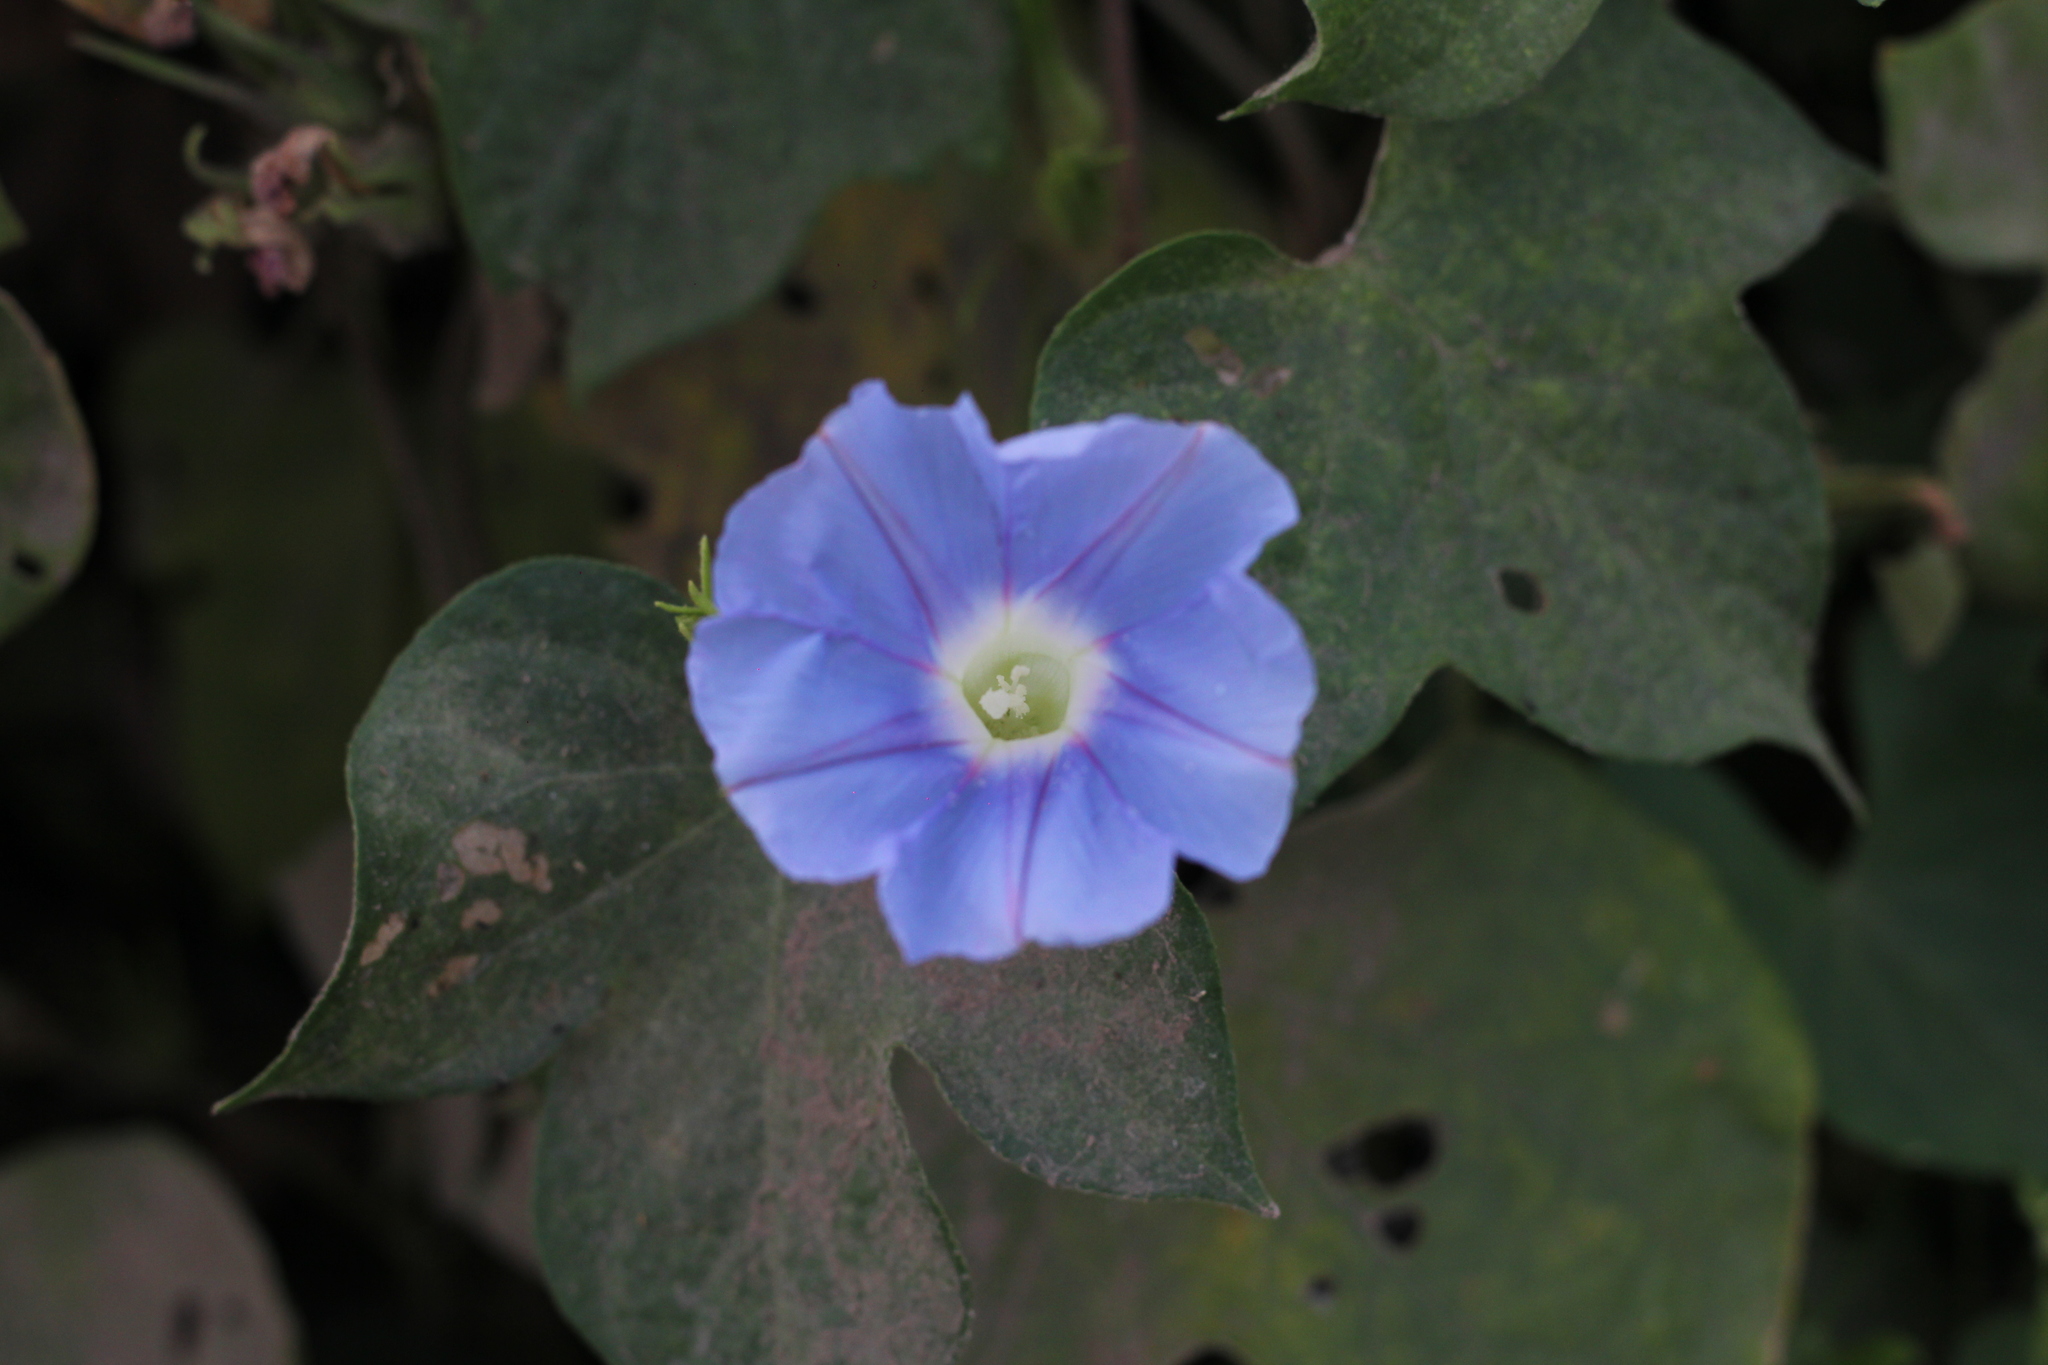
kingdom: Plantae
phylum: Tracheophyta
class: Magnoliopsida
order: Solanales
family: Convolvulaceae
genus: Ipomoea
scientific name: Ipomoea nil
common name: Japanese morning-glory
